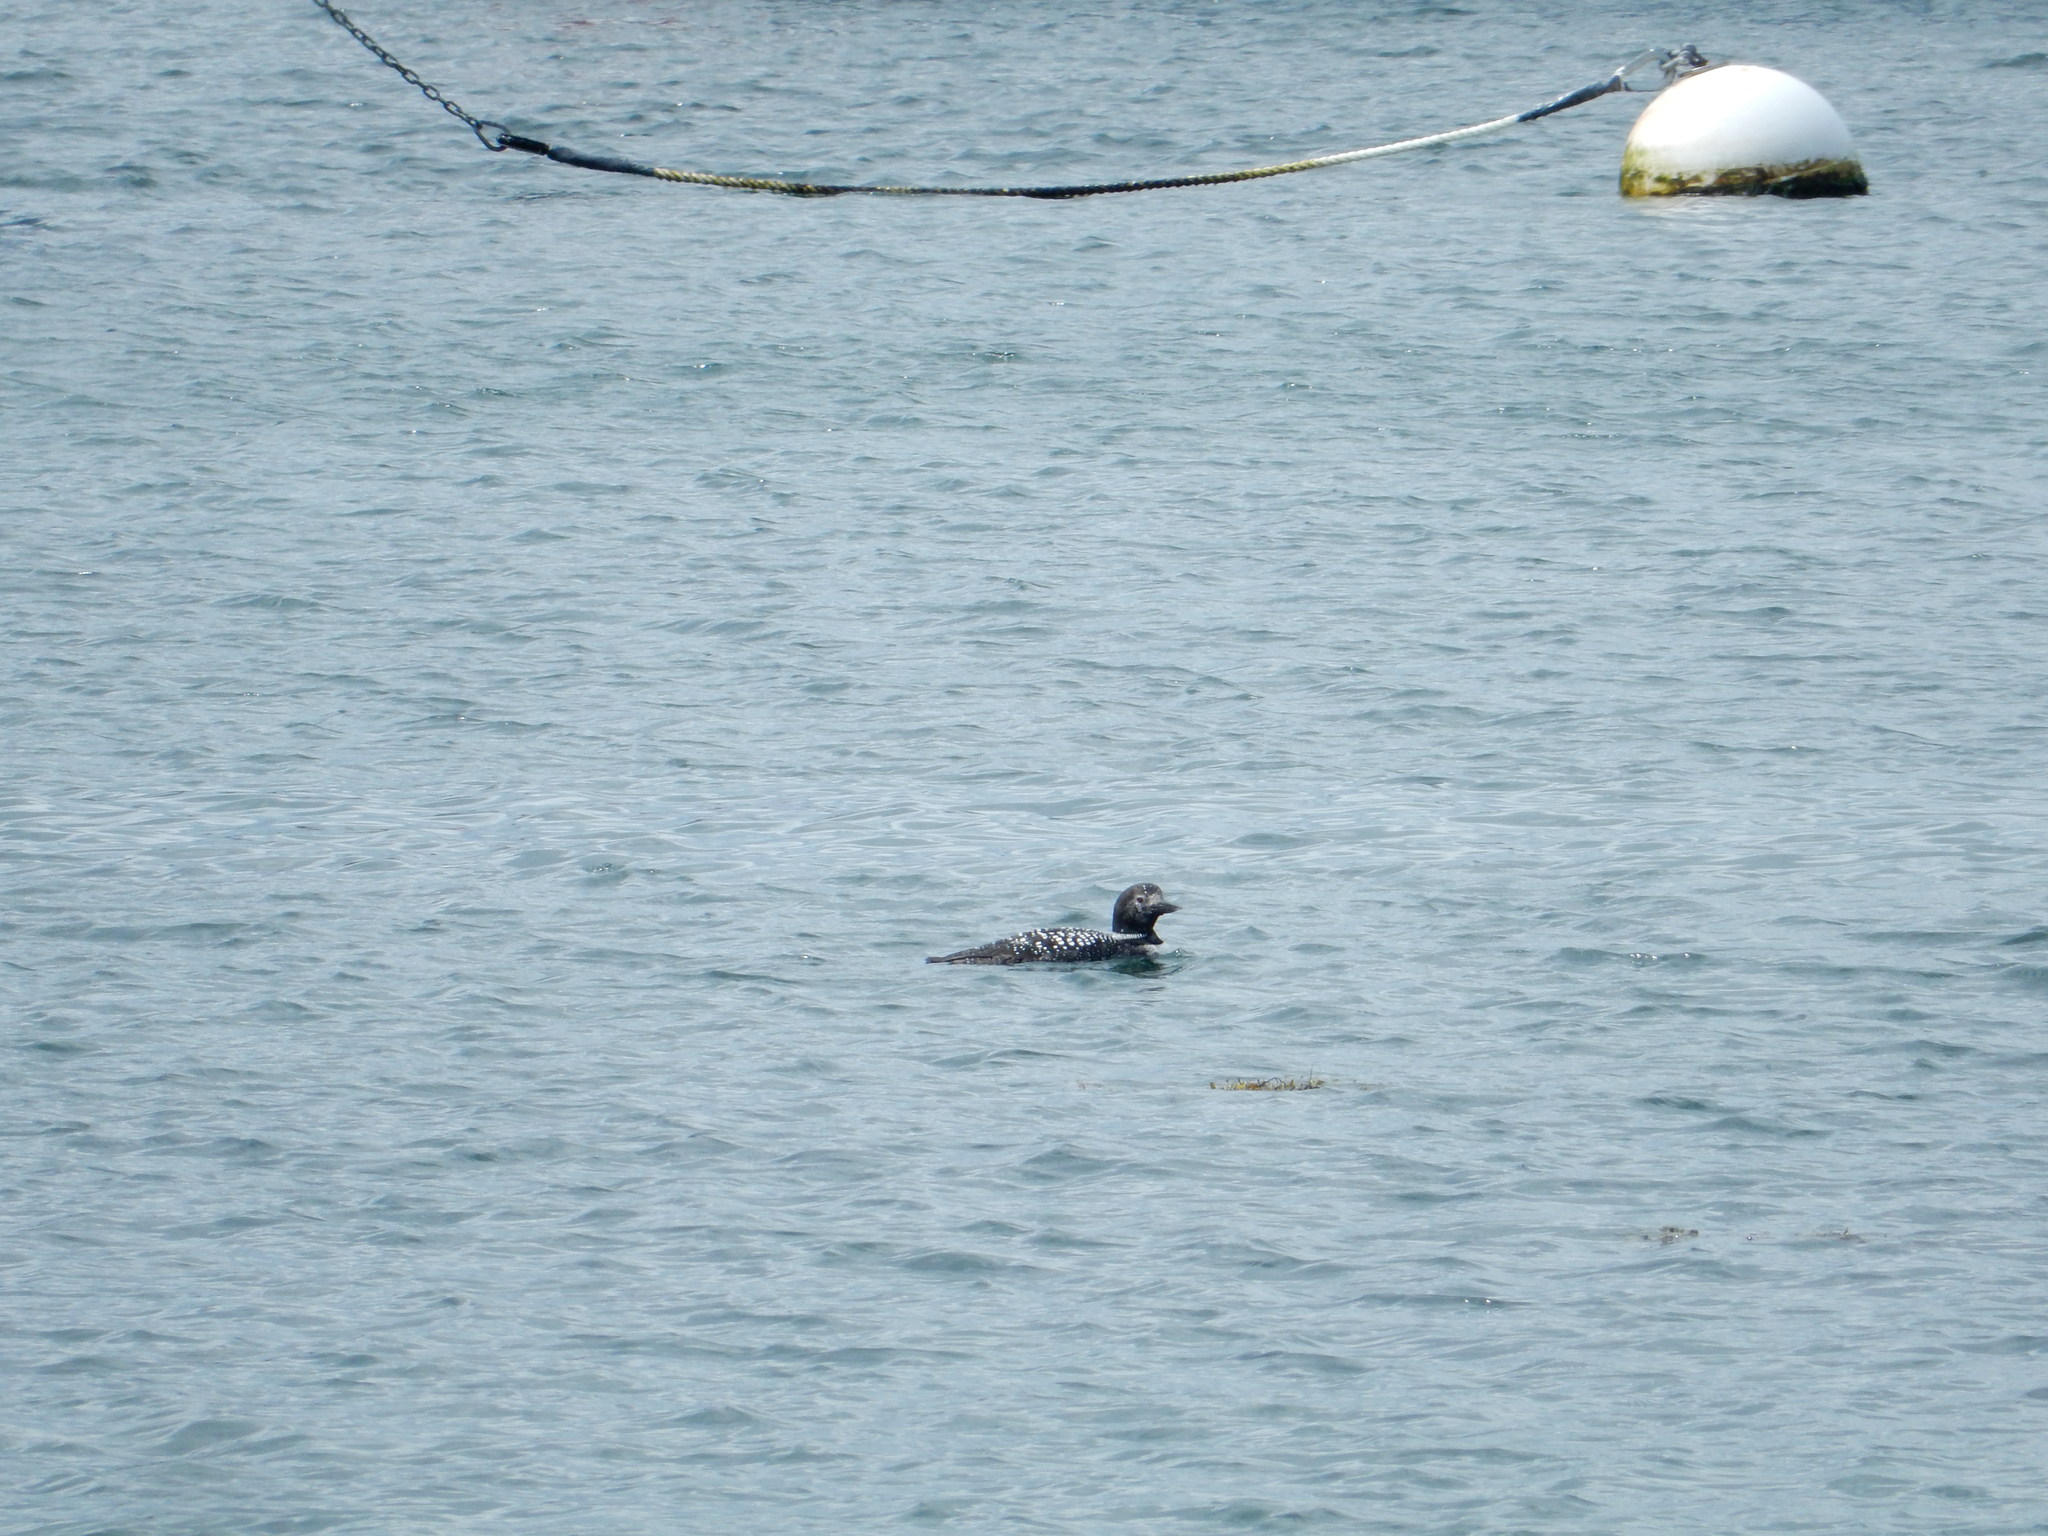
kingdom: Animalia
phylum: Chordata
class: Aves
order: Gaviiformes
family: Gaviidae
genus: Gavia
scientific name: Gavia immer
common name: Common loon
